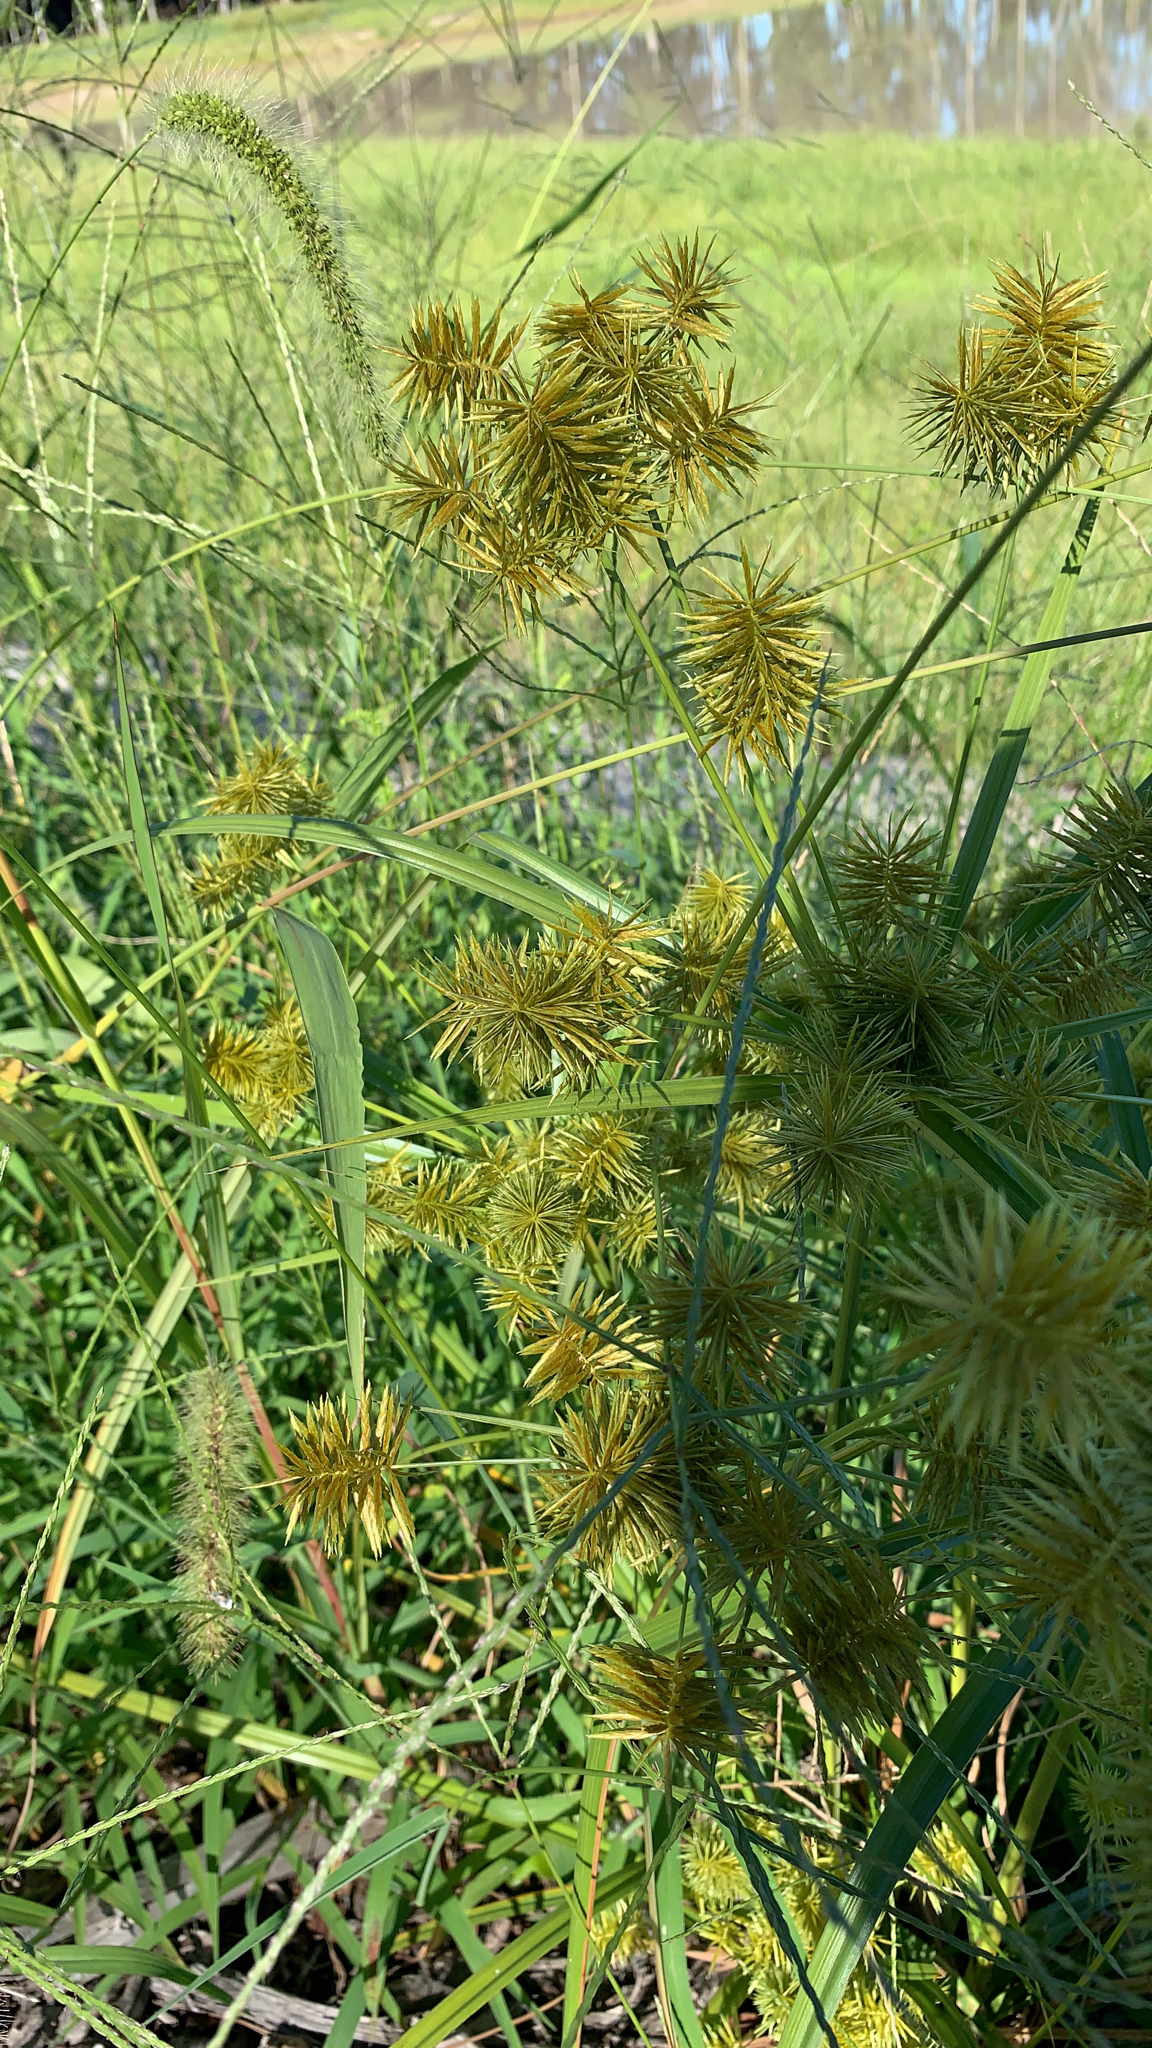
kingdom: Plantae
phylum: Tracheophyta
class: Liliopsida
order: Poales
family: Cyperaceae
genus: Cyperus
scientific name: Cyperus strigosus
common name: False nutsedge
